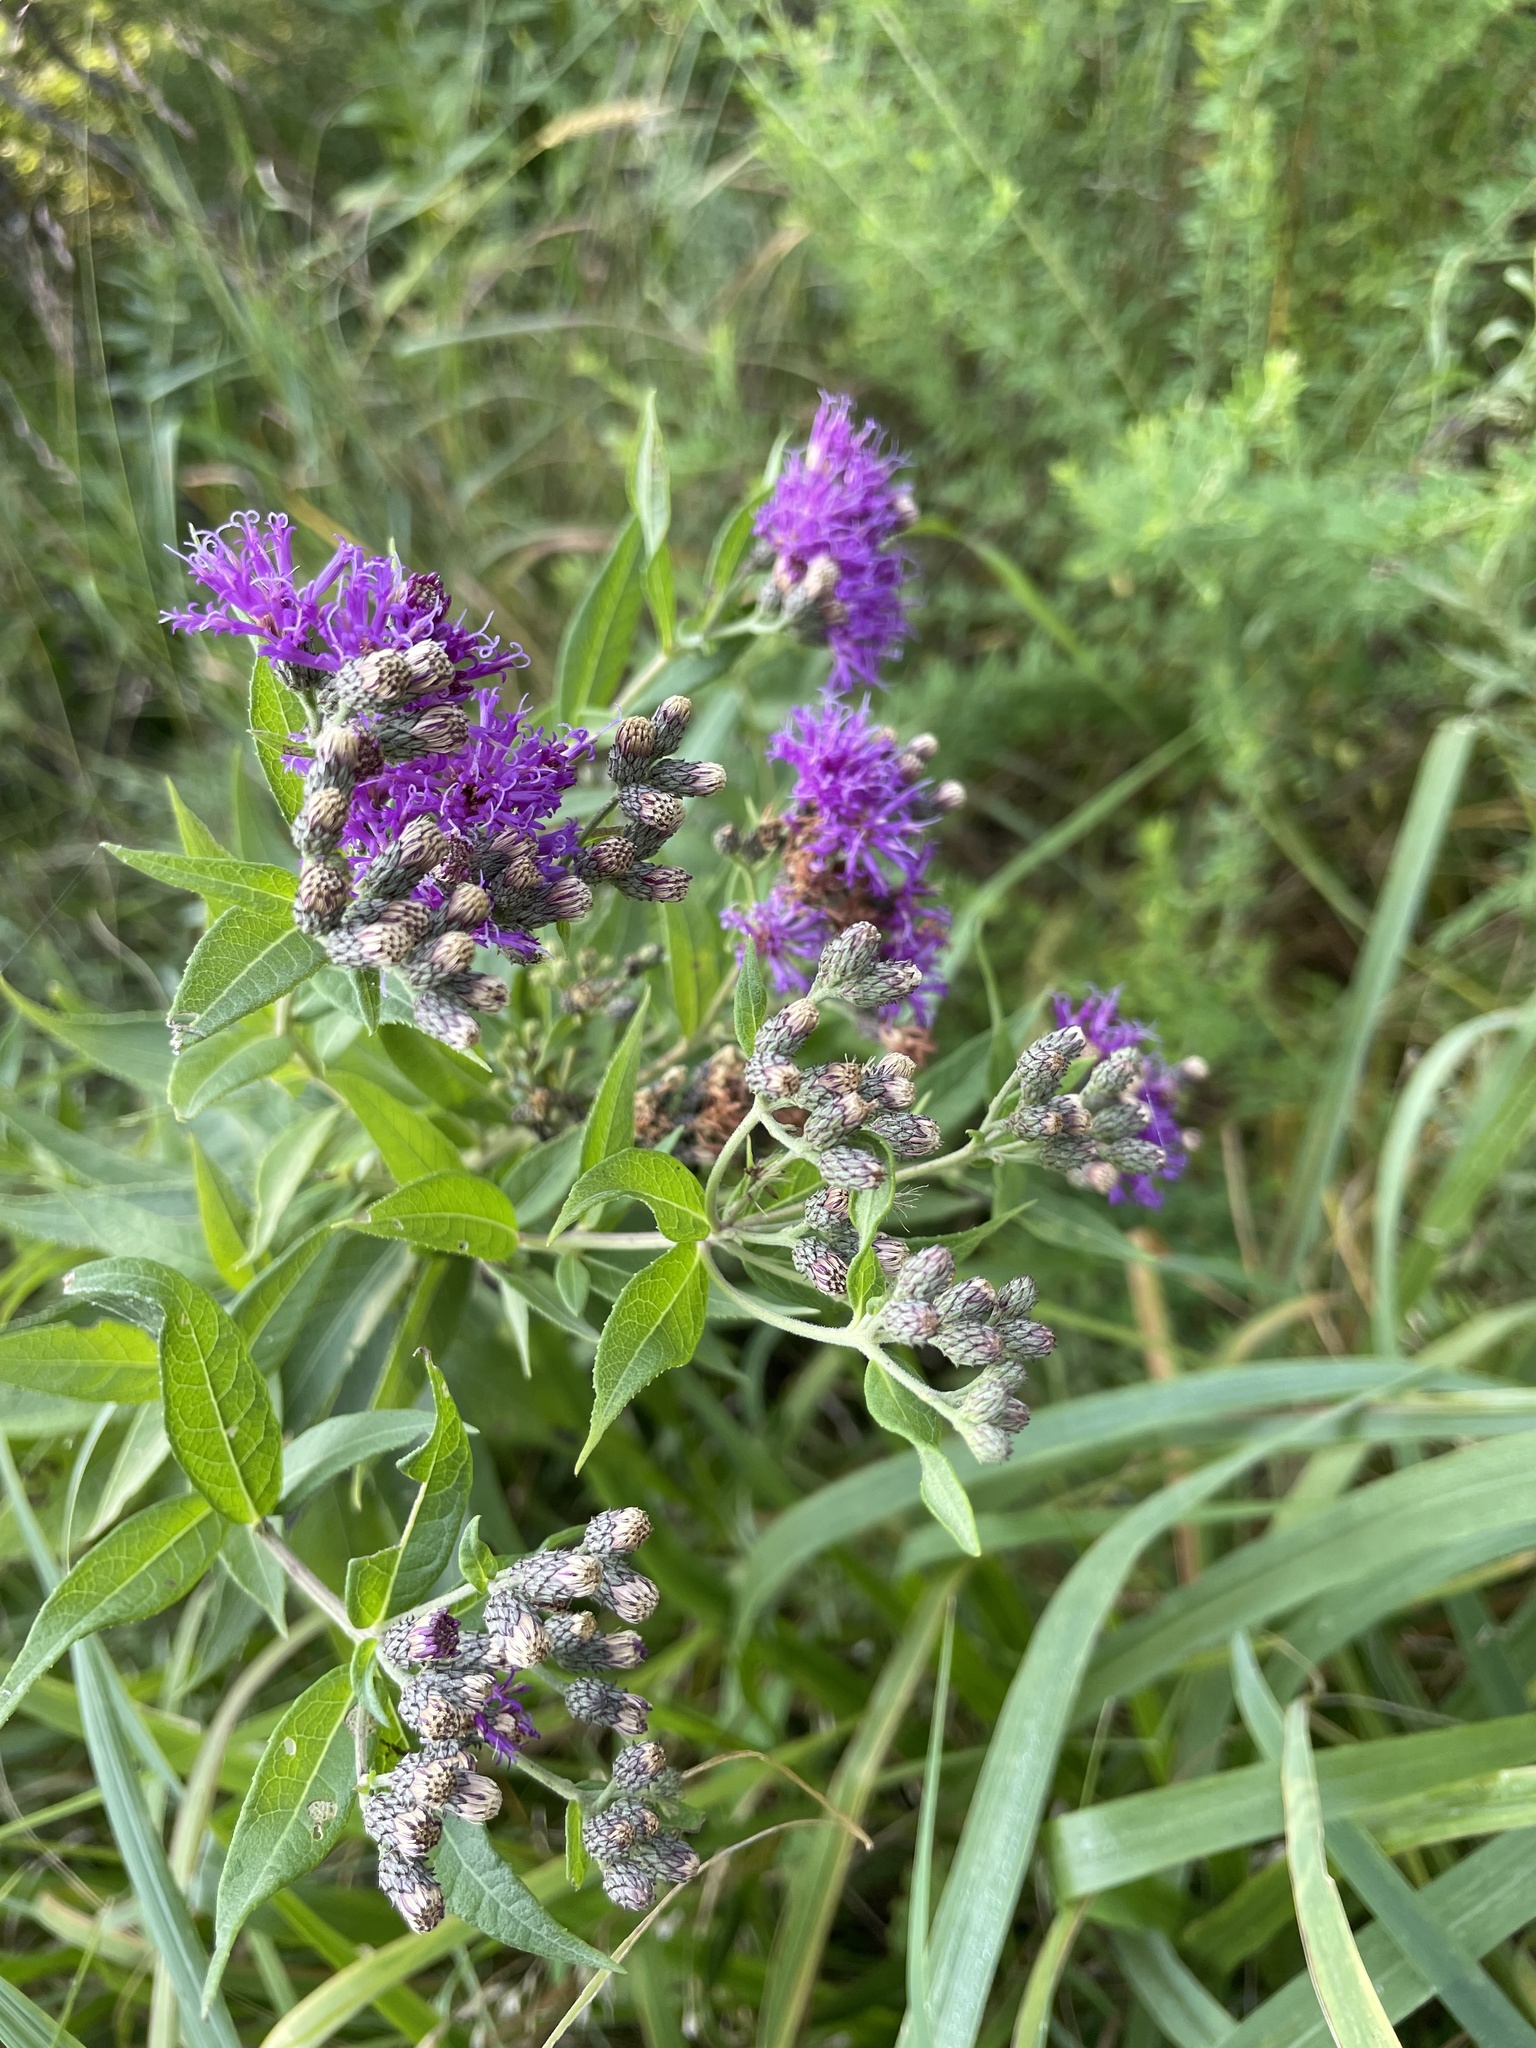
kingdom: Plantae
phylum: Tracheophyta
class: Magnoliopsida
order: Asterales
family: Asteraceae
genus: Vernonia
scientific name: Vernonia baldwinii
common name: Western ironweed
